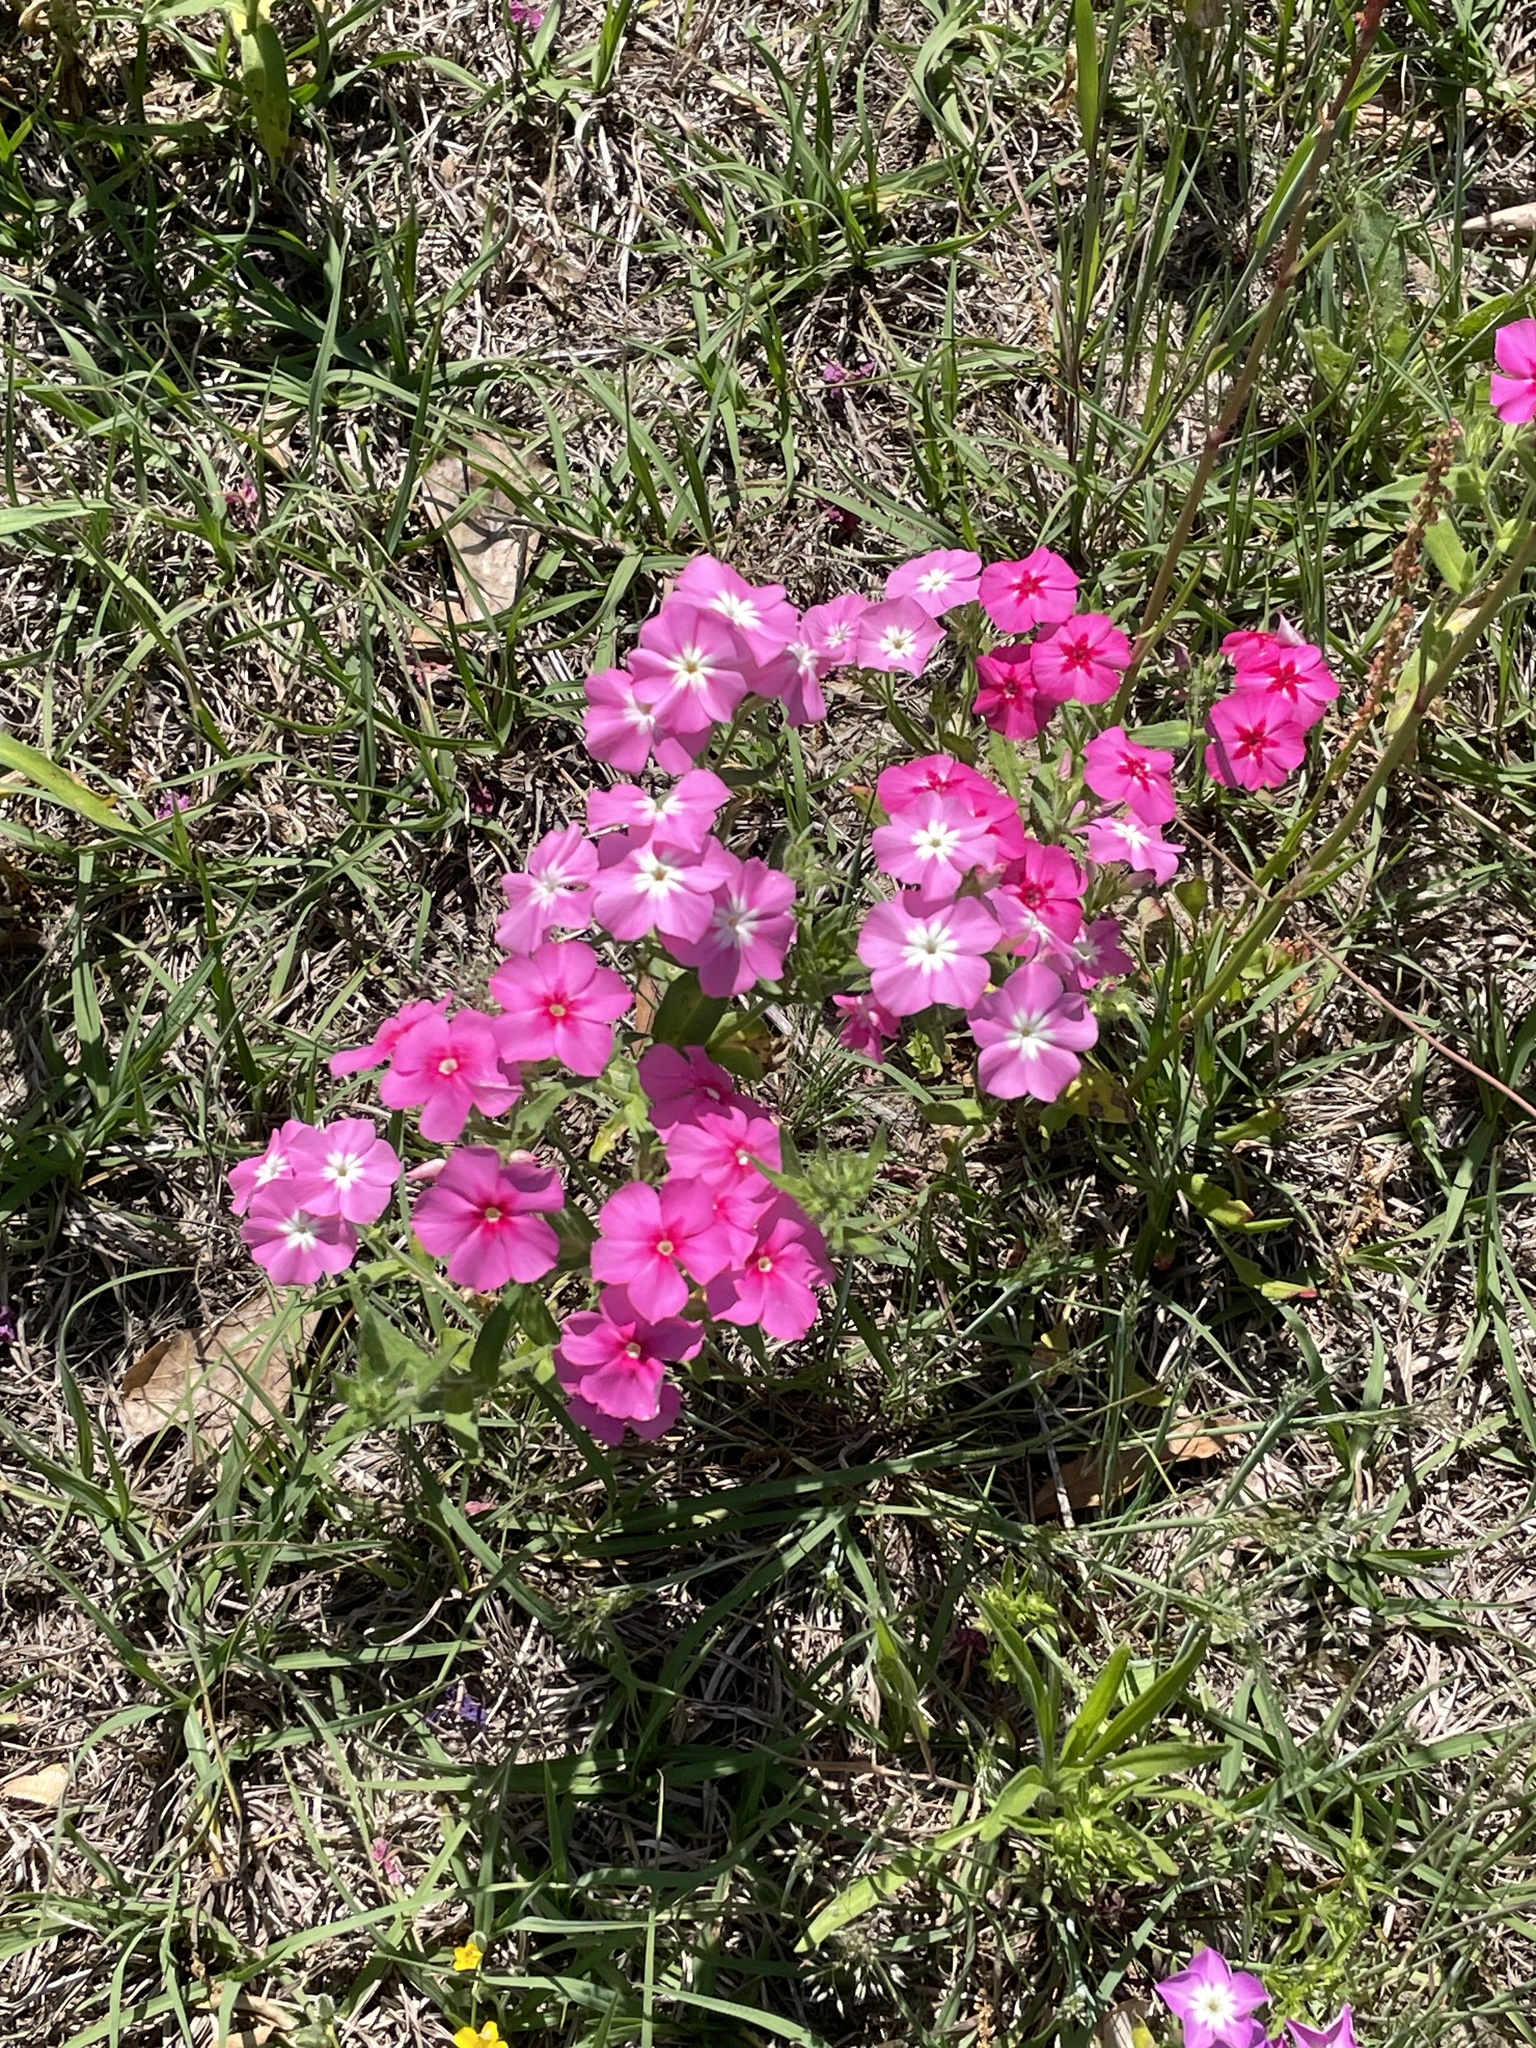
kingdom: Plantae
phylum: Tracheophyta
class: Magnoliopsida
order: Ericales
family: Polemoniaceae
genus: Phlox
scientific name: Phlox drummondii
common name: Drummond's phlox
